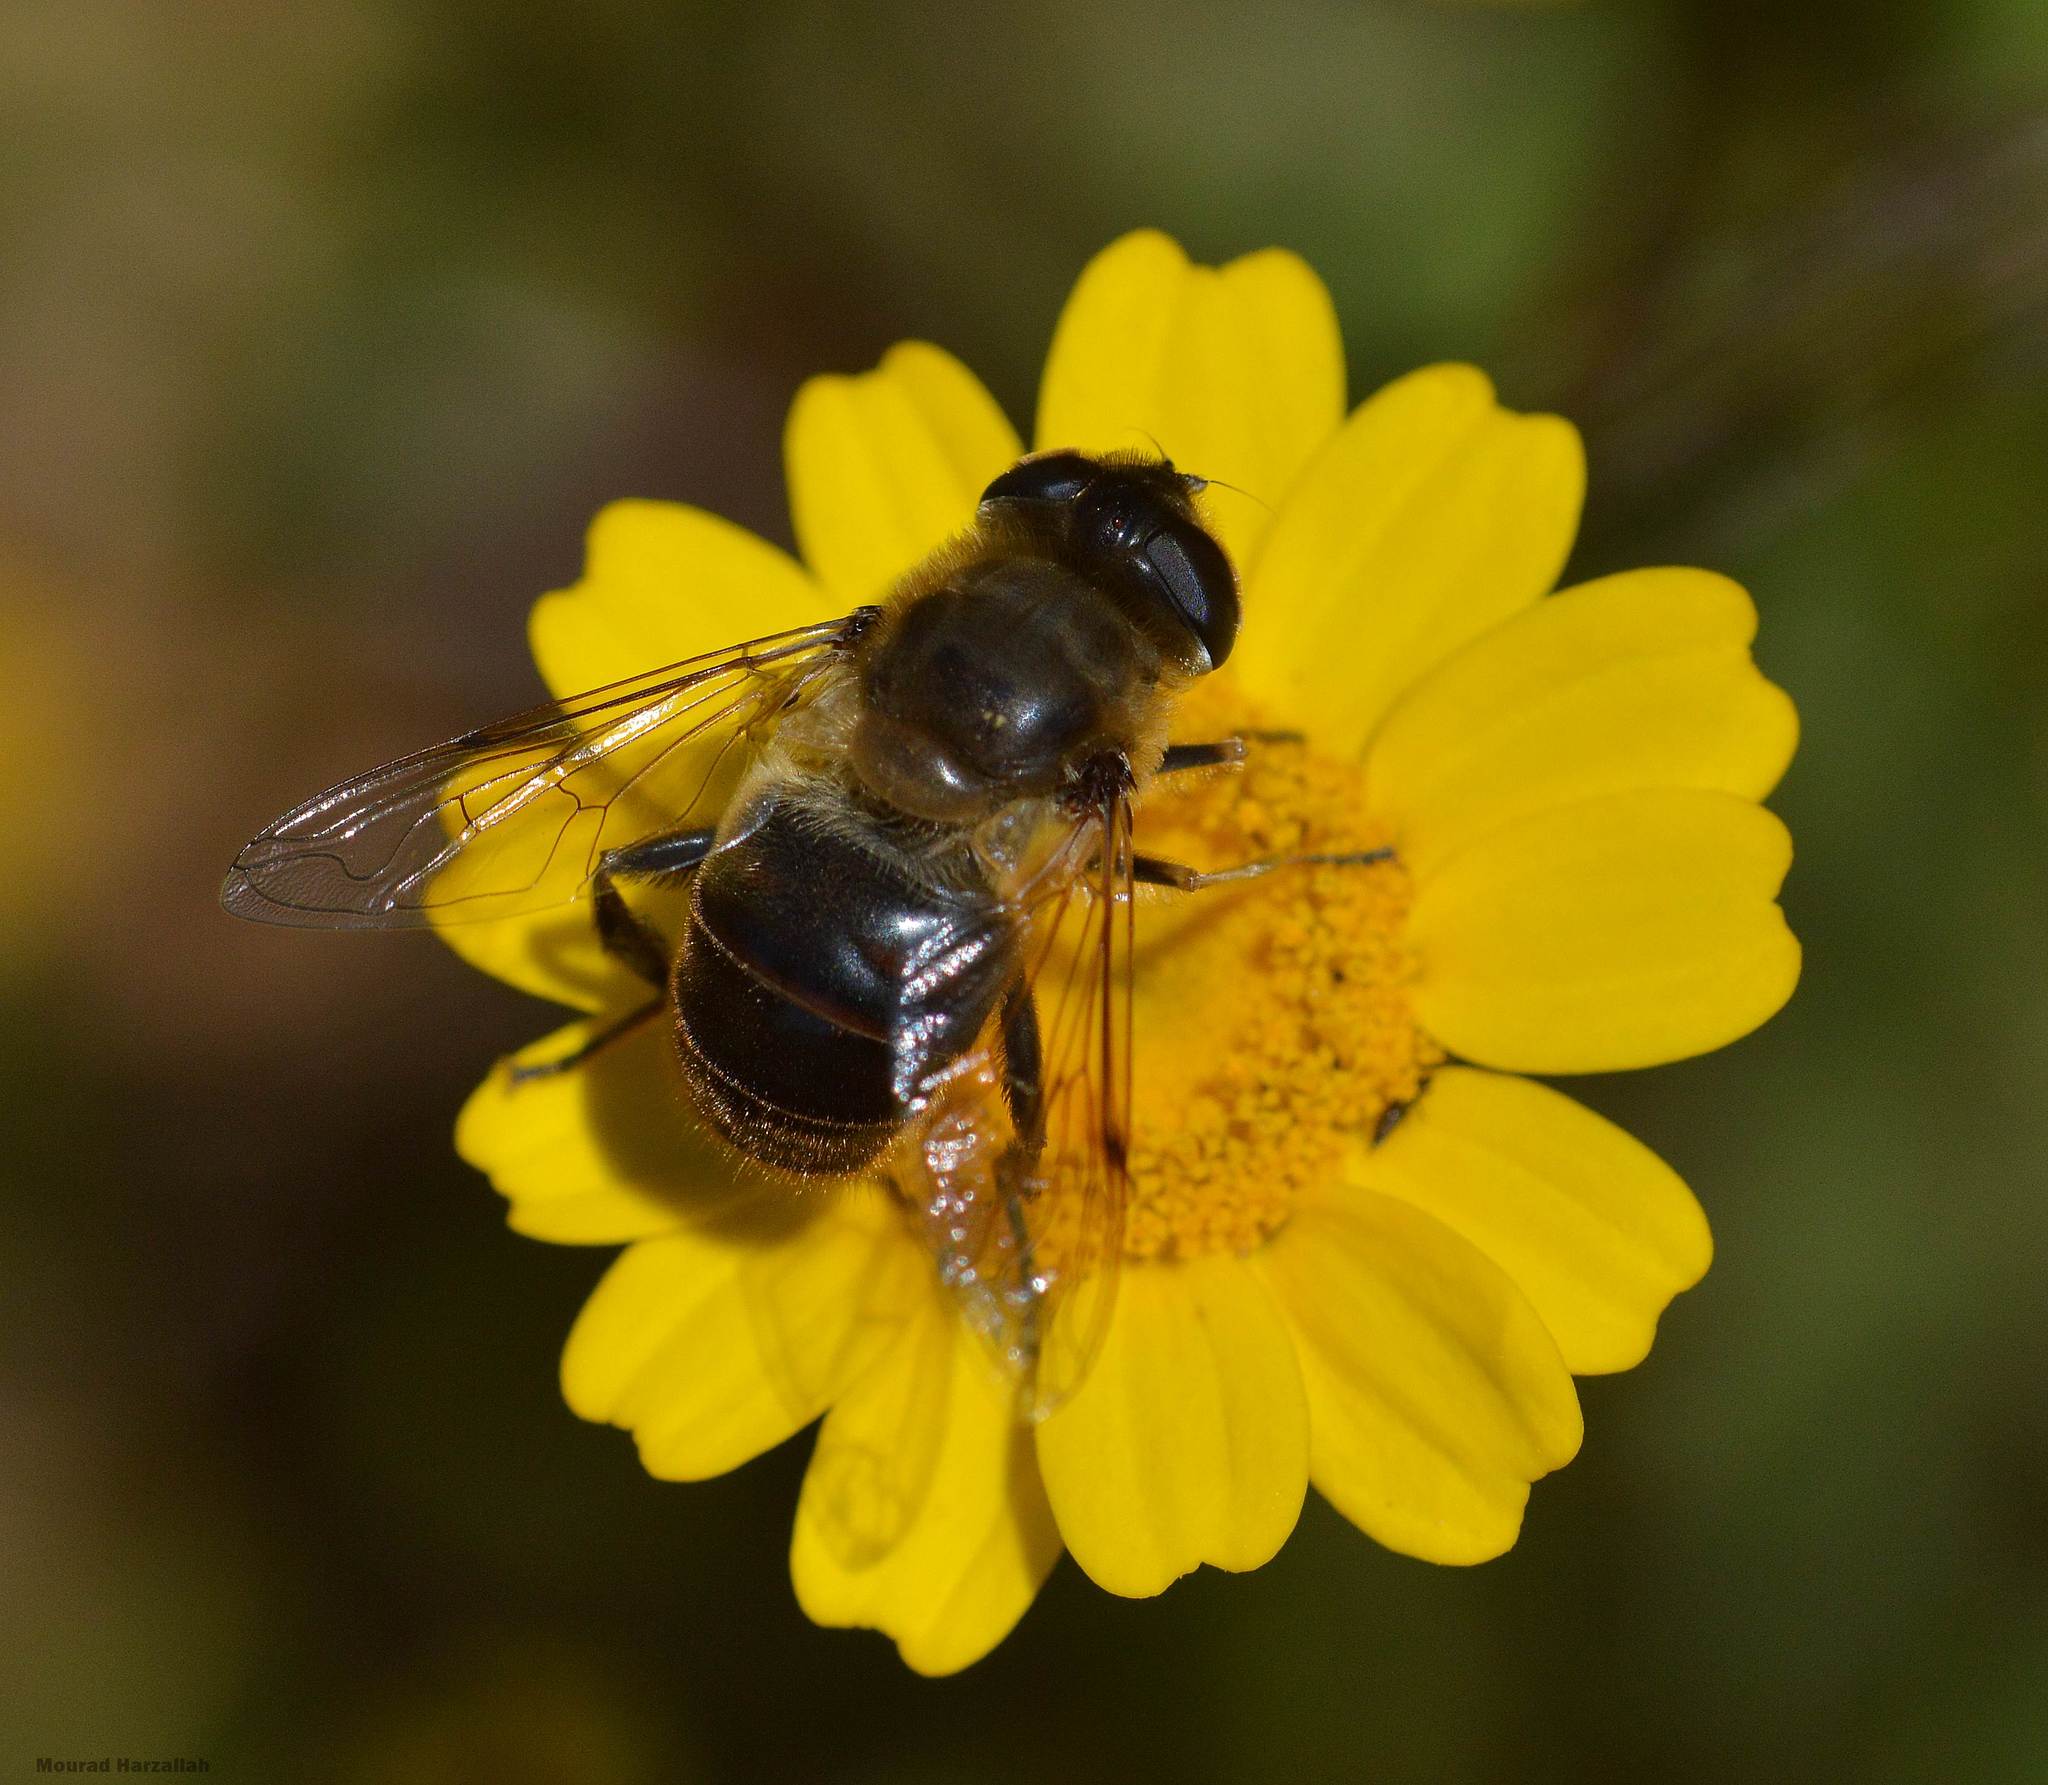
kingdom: Animalia
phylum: Arthropoda
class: Insecta
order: Diptera
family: Syrphidae
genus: Eristalis
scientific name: Eristalis tenax
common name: Drone fly
